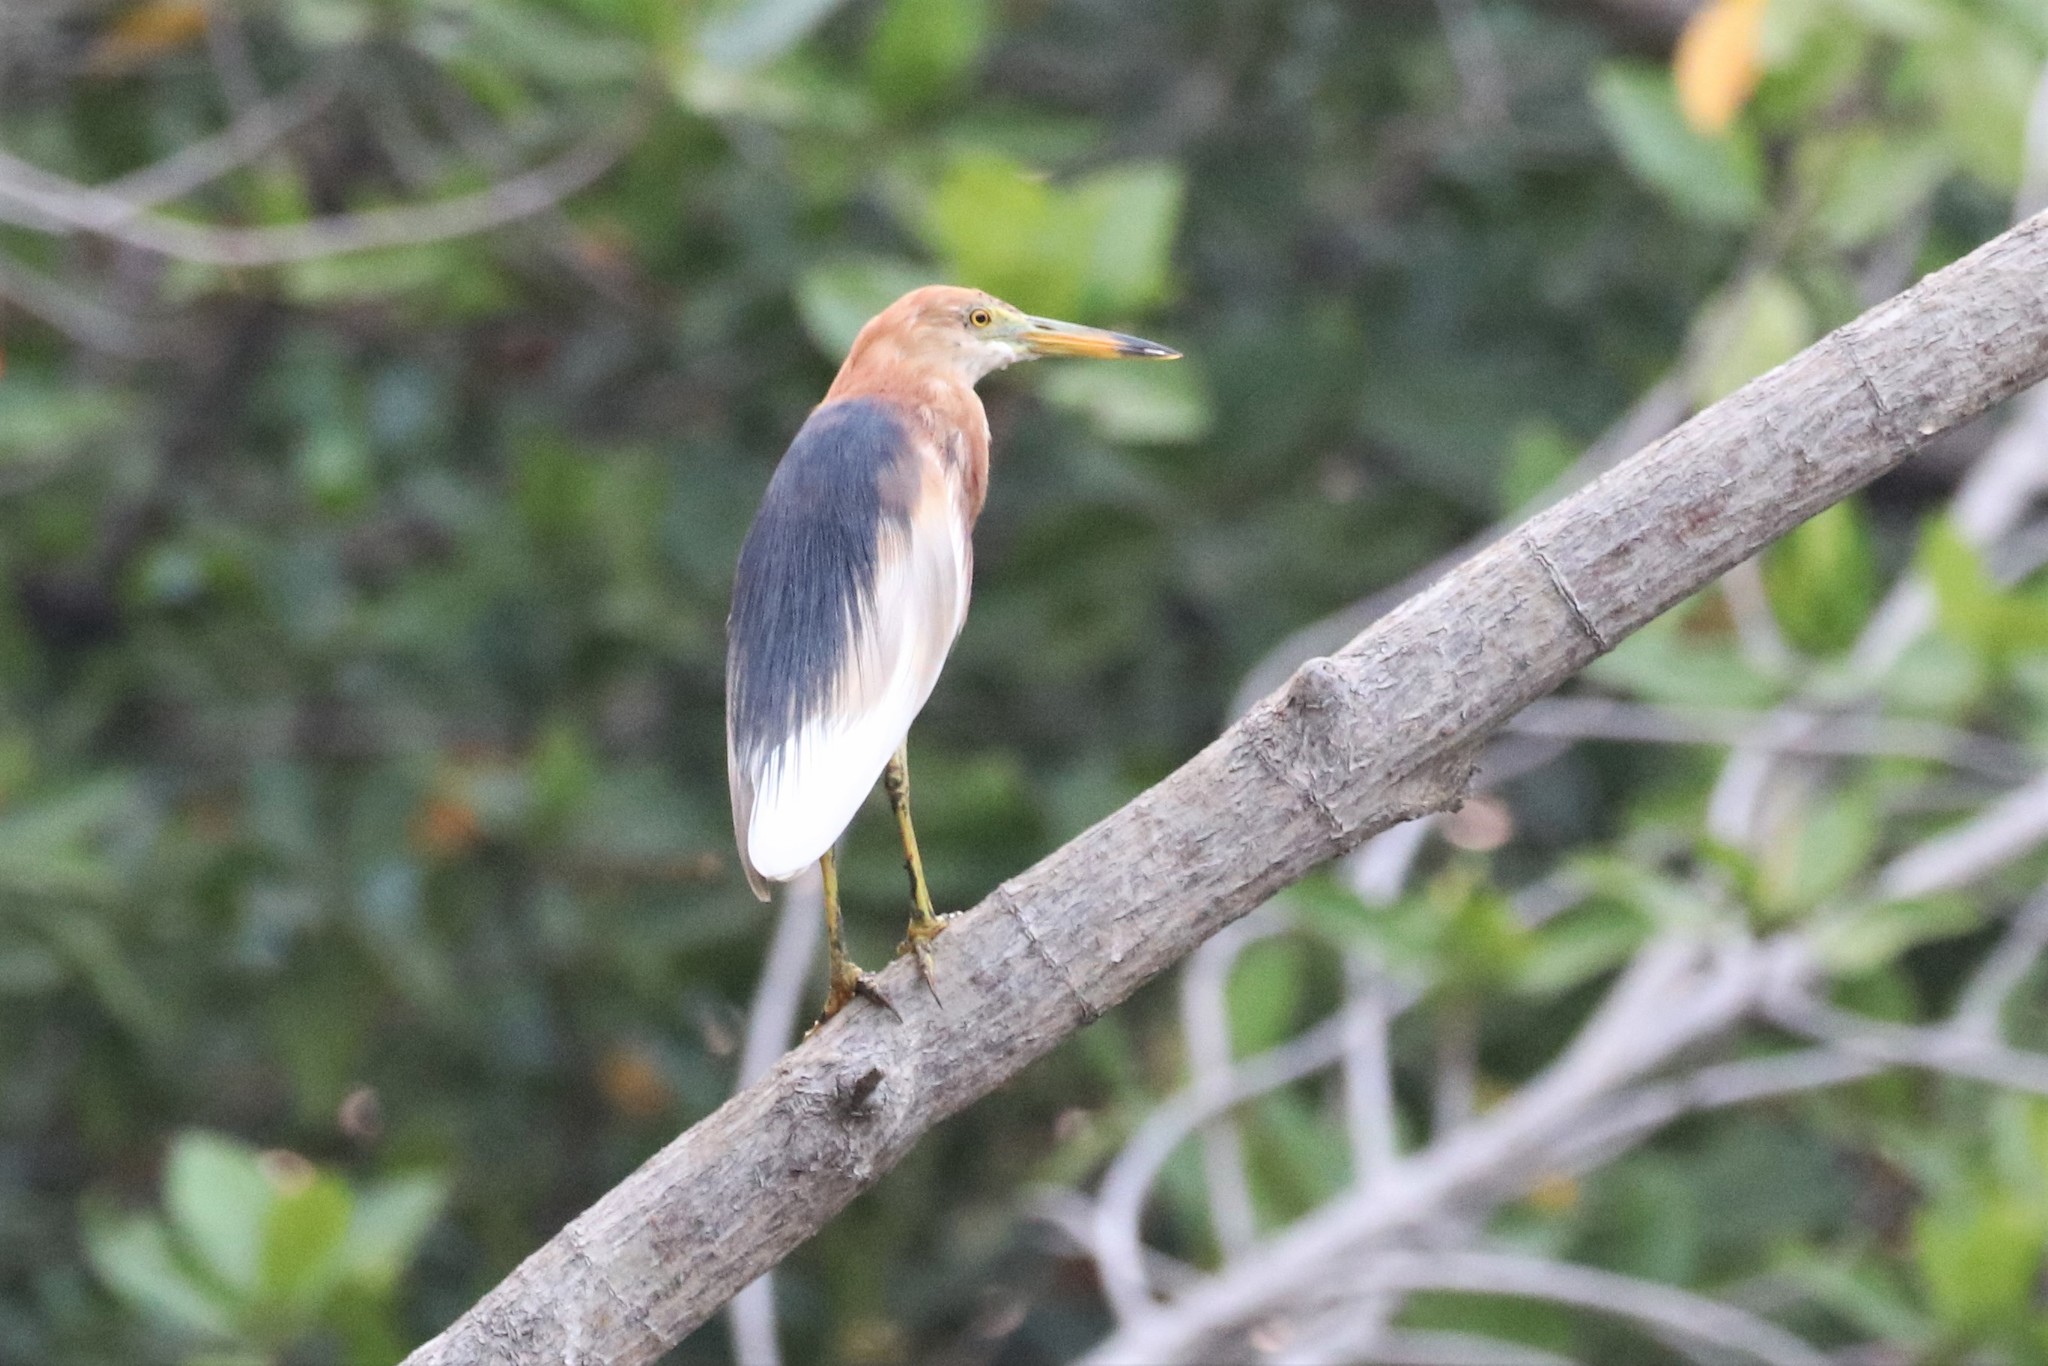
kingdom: Animalia
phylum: Chordata
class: Aves
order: Pelecaniformes
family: Ardeidae
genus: Ardeola
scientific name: Ardeola speciosa
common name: Javan pond heron
